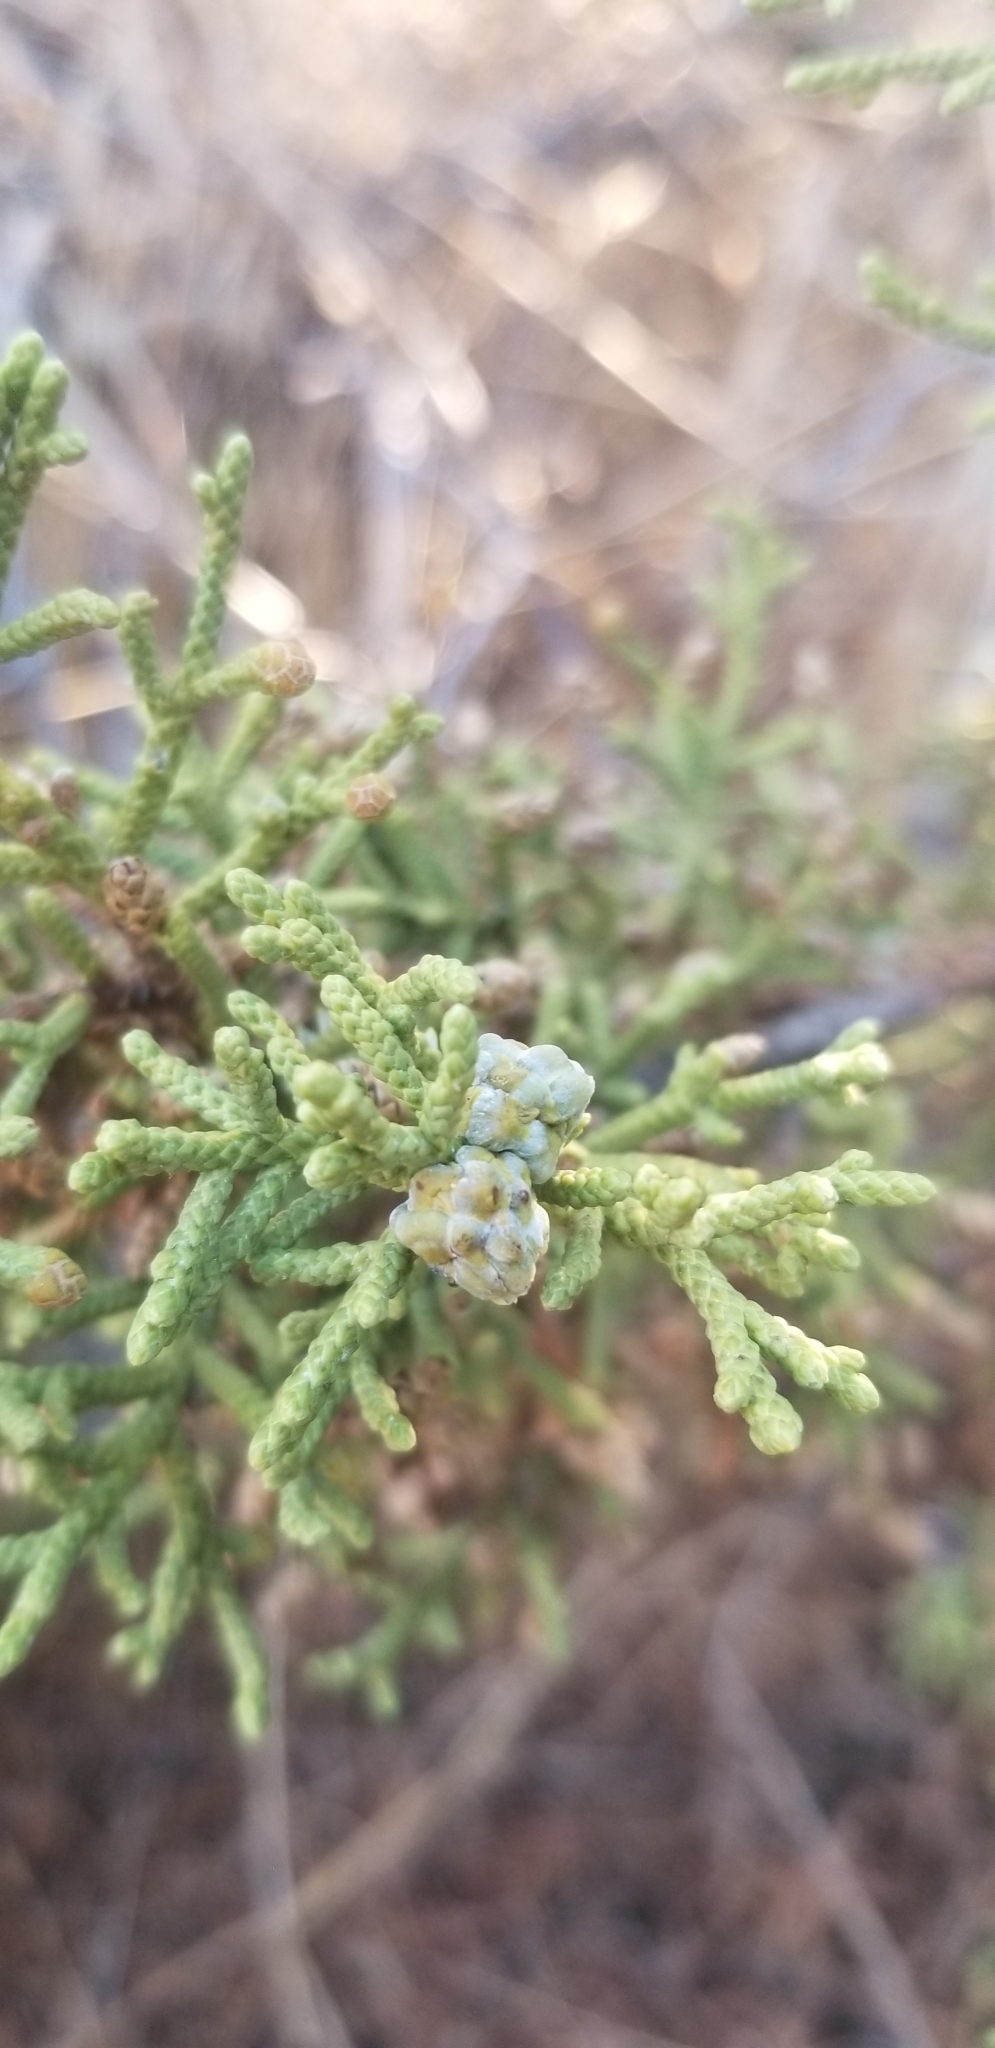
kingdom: Plantae
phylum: Tracheophyta
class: Pinopsida
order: Pinales
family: Cupressaceae
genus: Juniperus
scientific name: Juniperus californica
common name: California juniper
